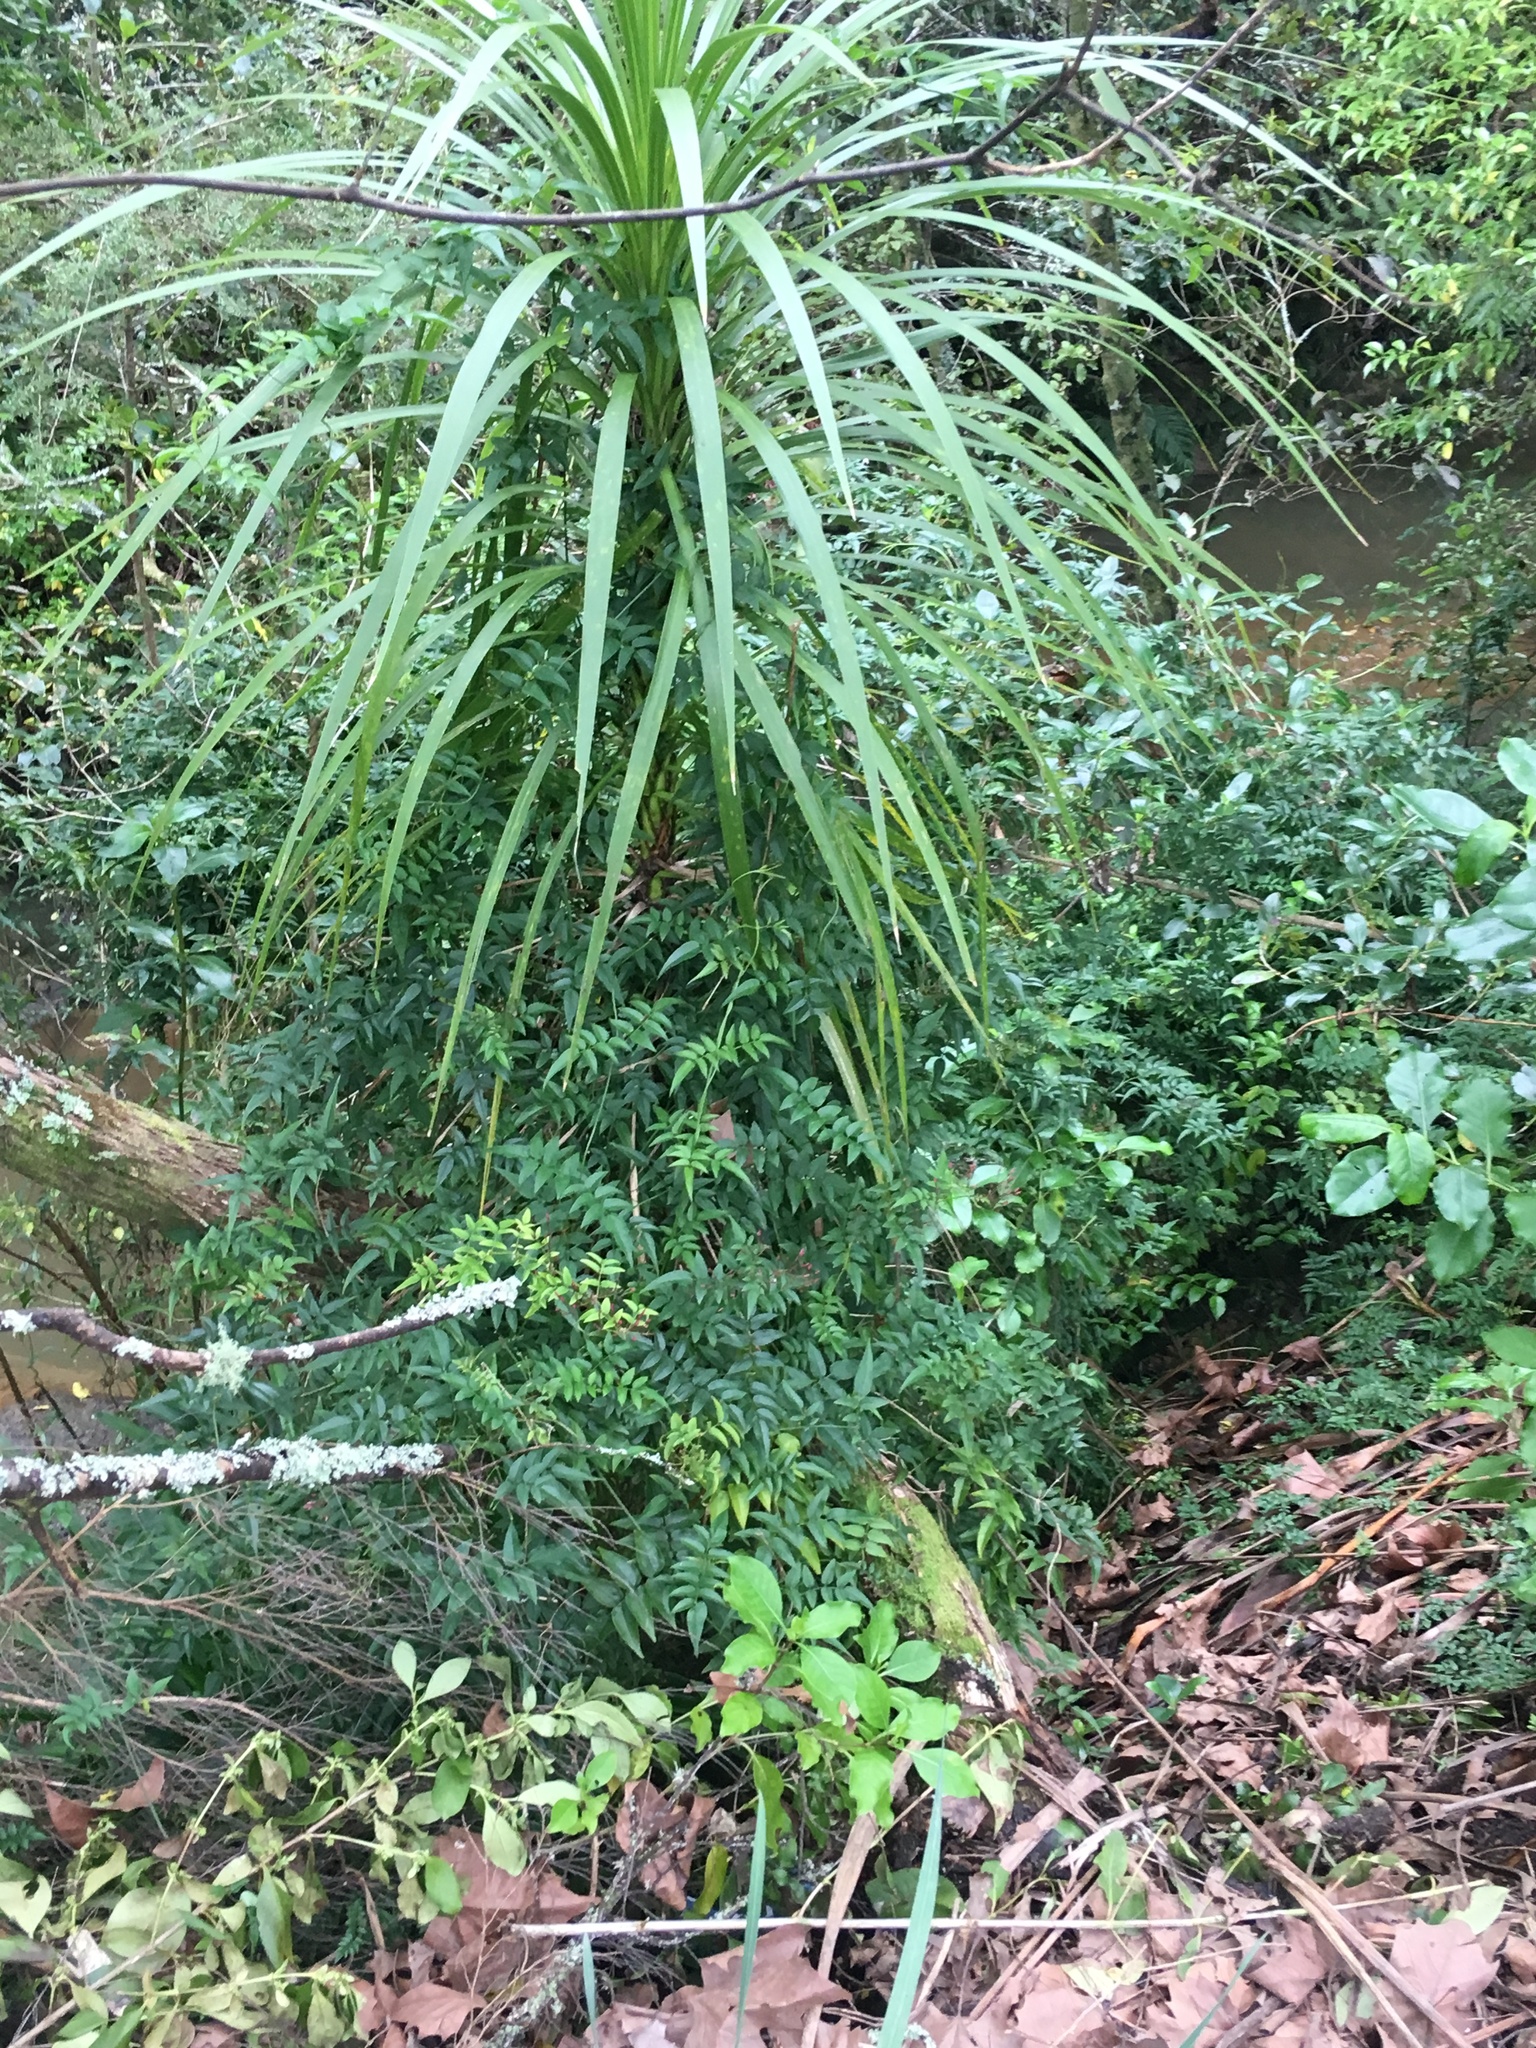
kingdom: Plantae
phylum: Tracheophyta
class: Magnoliopsida
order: Lamiales
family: Oleaceae
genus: Jasminum
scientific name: Jasminum polyanthum
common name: Pink jasmine
